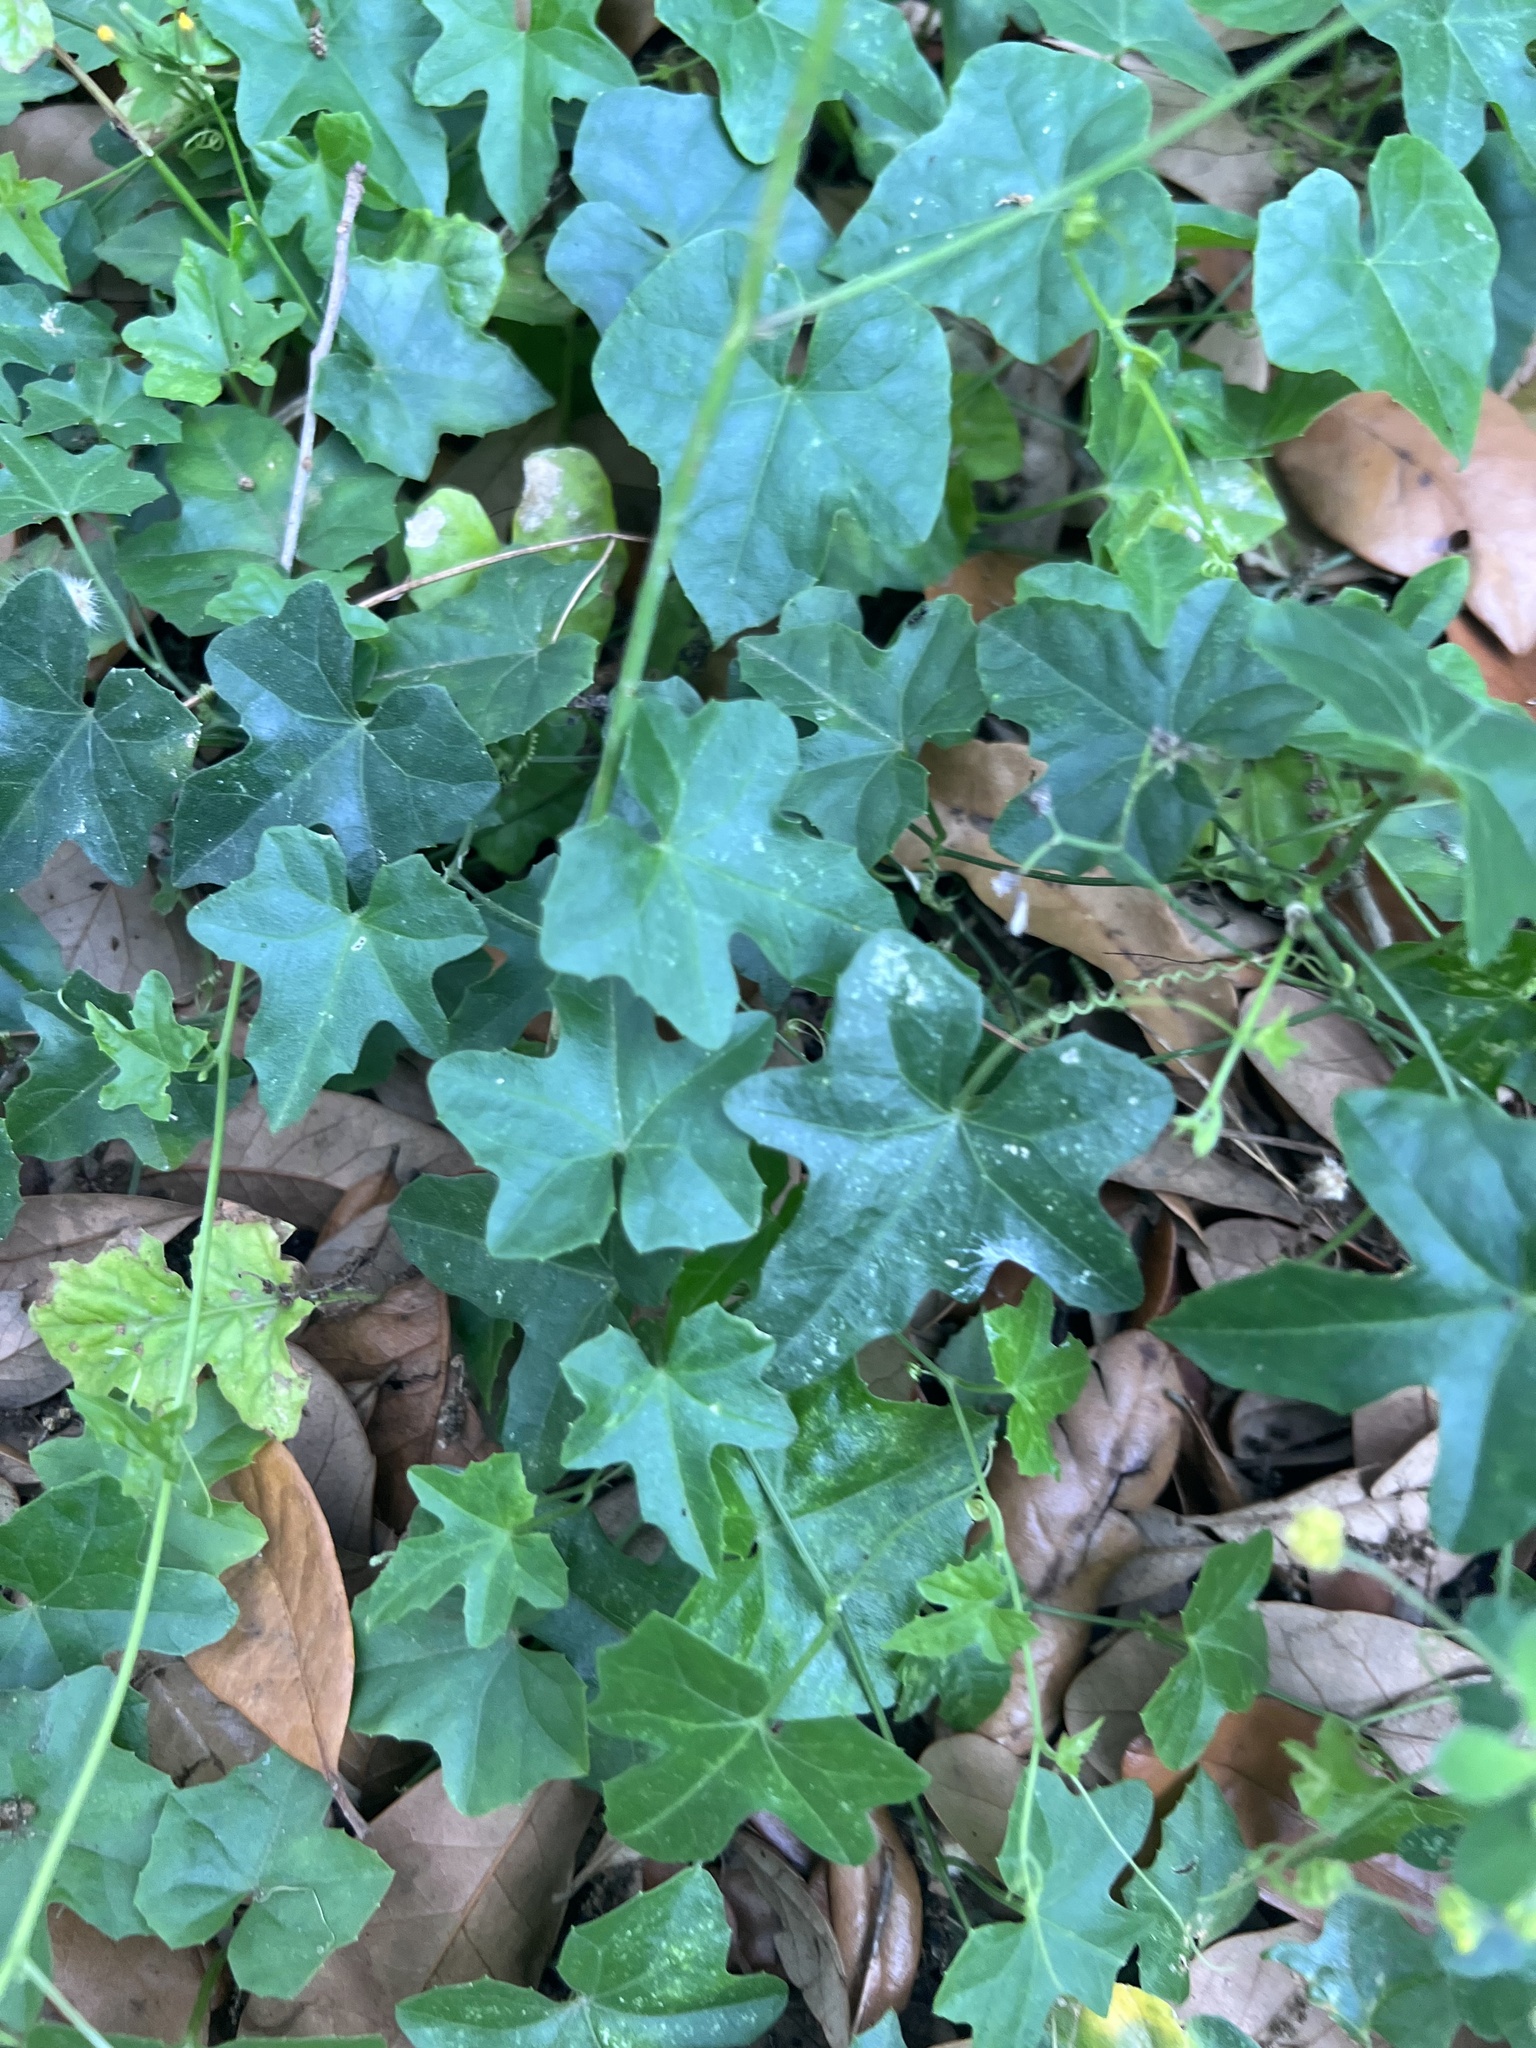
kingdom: Plantae
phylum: Tracheophyta
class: Magnoliopsida
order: Cucurbitales
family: Cucurbitaceae
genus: Melothria
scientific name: Melothria pendula
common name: Creeping-cucumber
